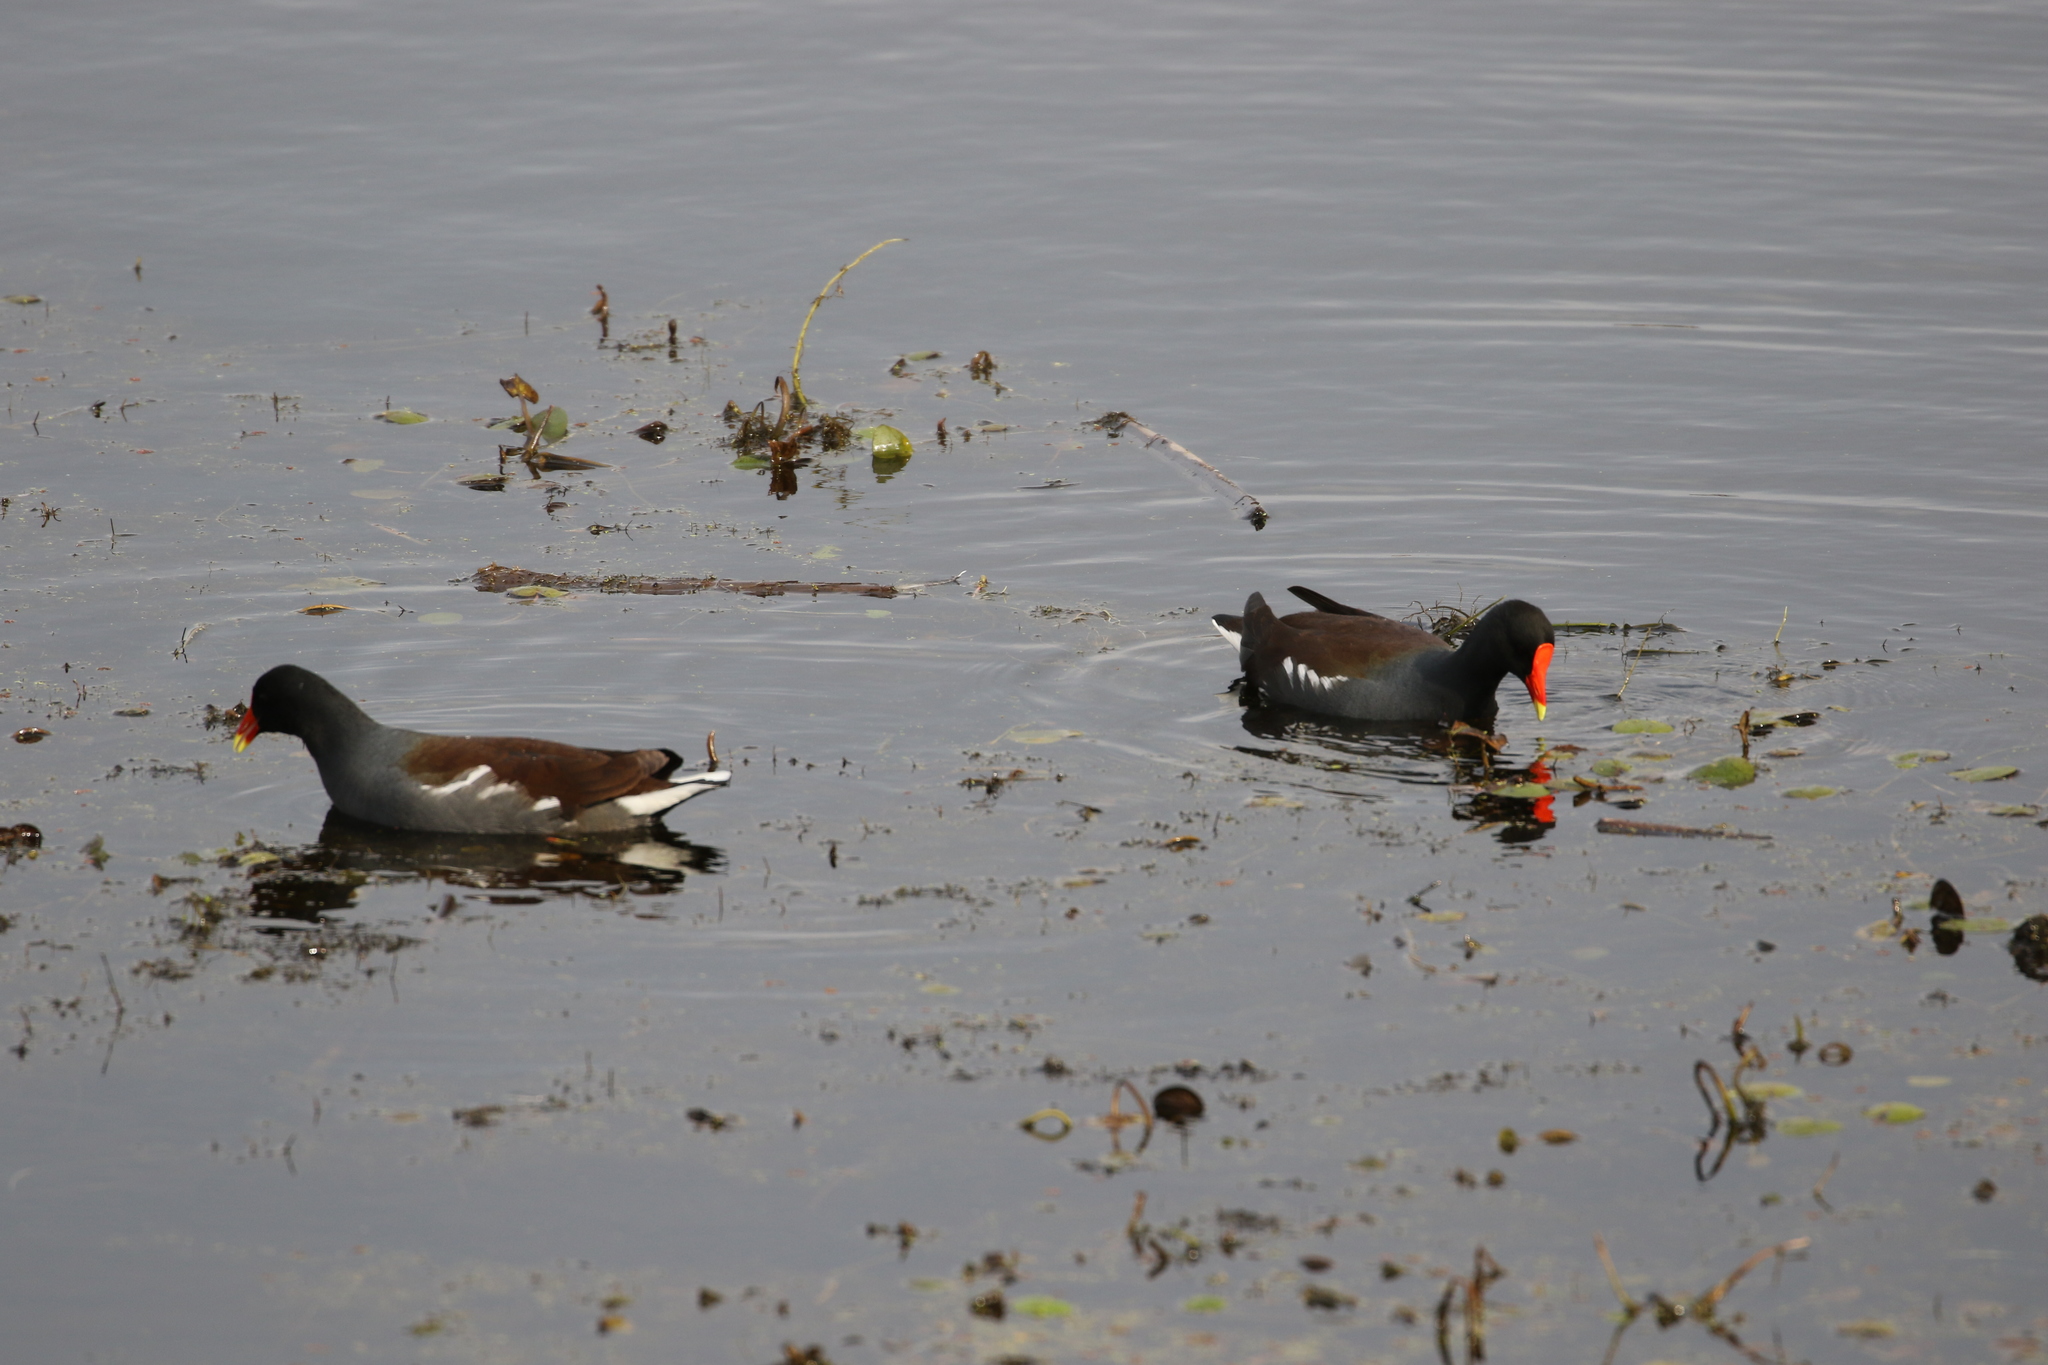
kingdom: Animalia
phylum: Chordata
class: Aves
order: Gruiformes
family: Rallidae
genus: Gallinula
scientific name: Gallinula chloropus
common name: Common moorhen
